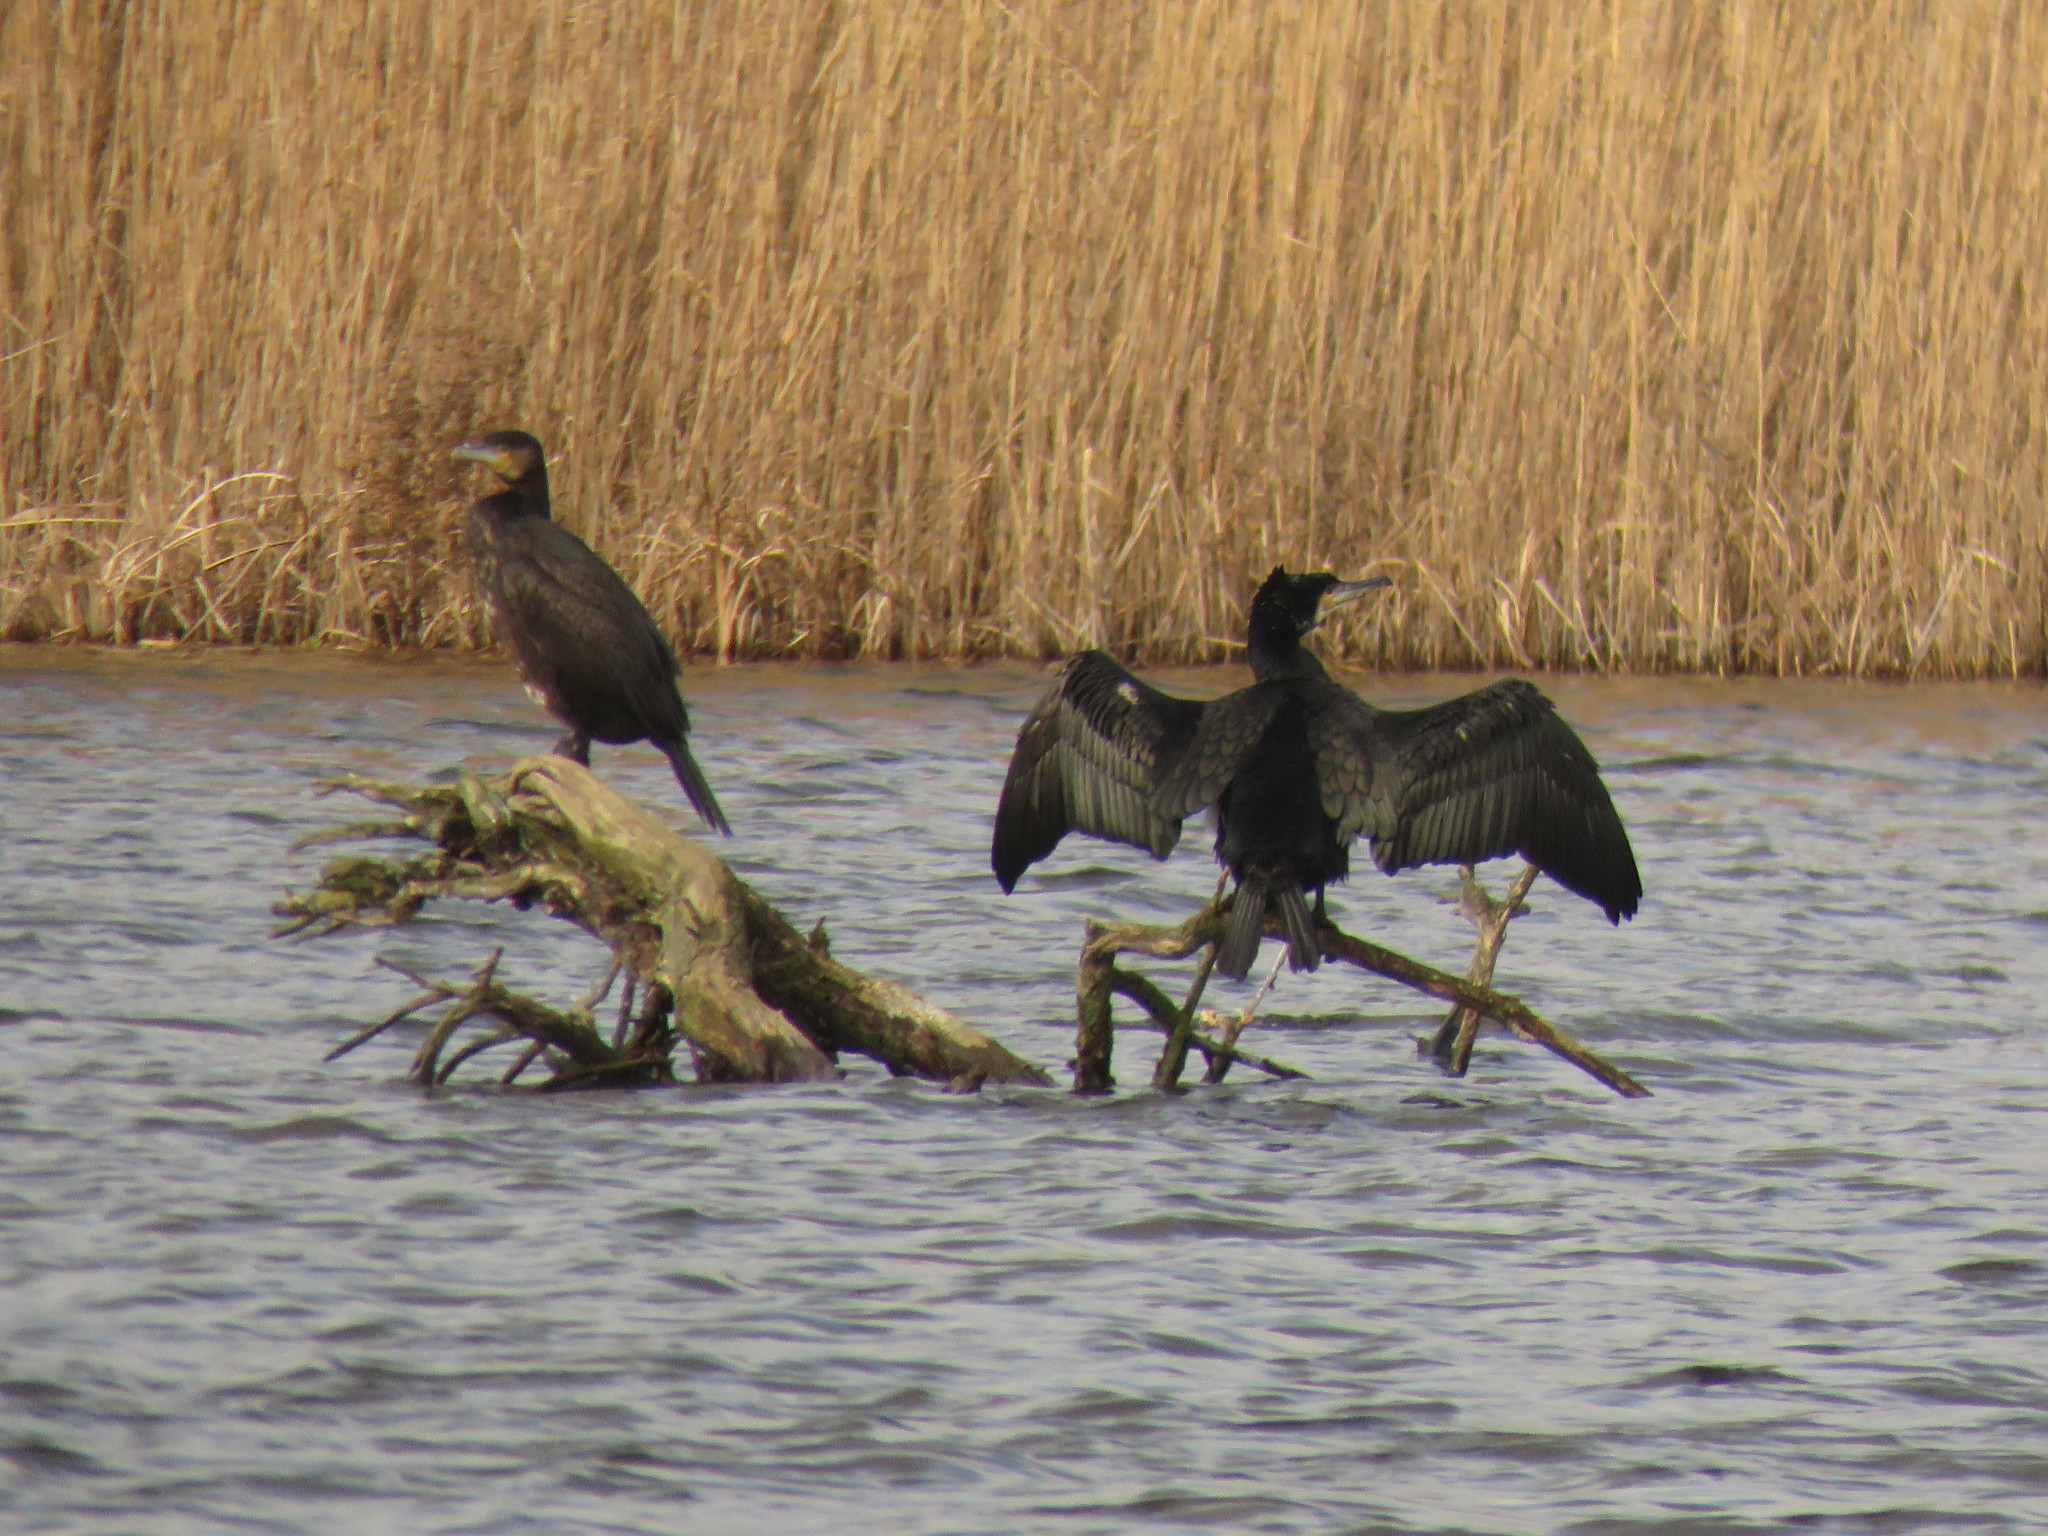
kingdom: Animalia
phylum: Chordata
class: Aves
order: Suliformes
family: Phalacrocoracidae
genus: Phalacrocorax
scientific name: Phalacrocorax carbo
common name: Great cormorant
